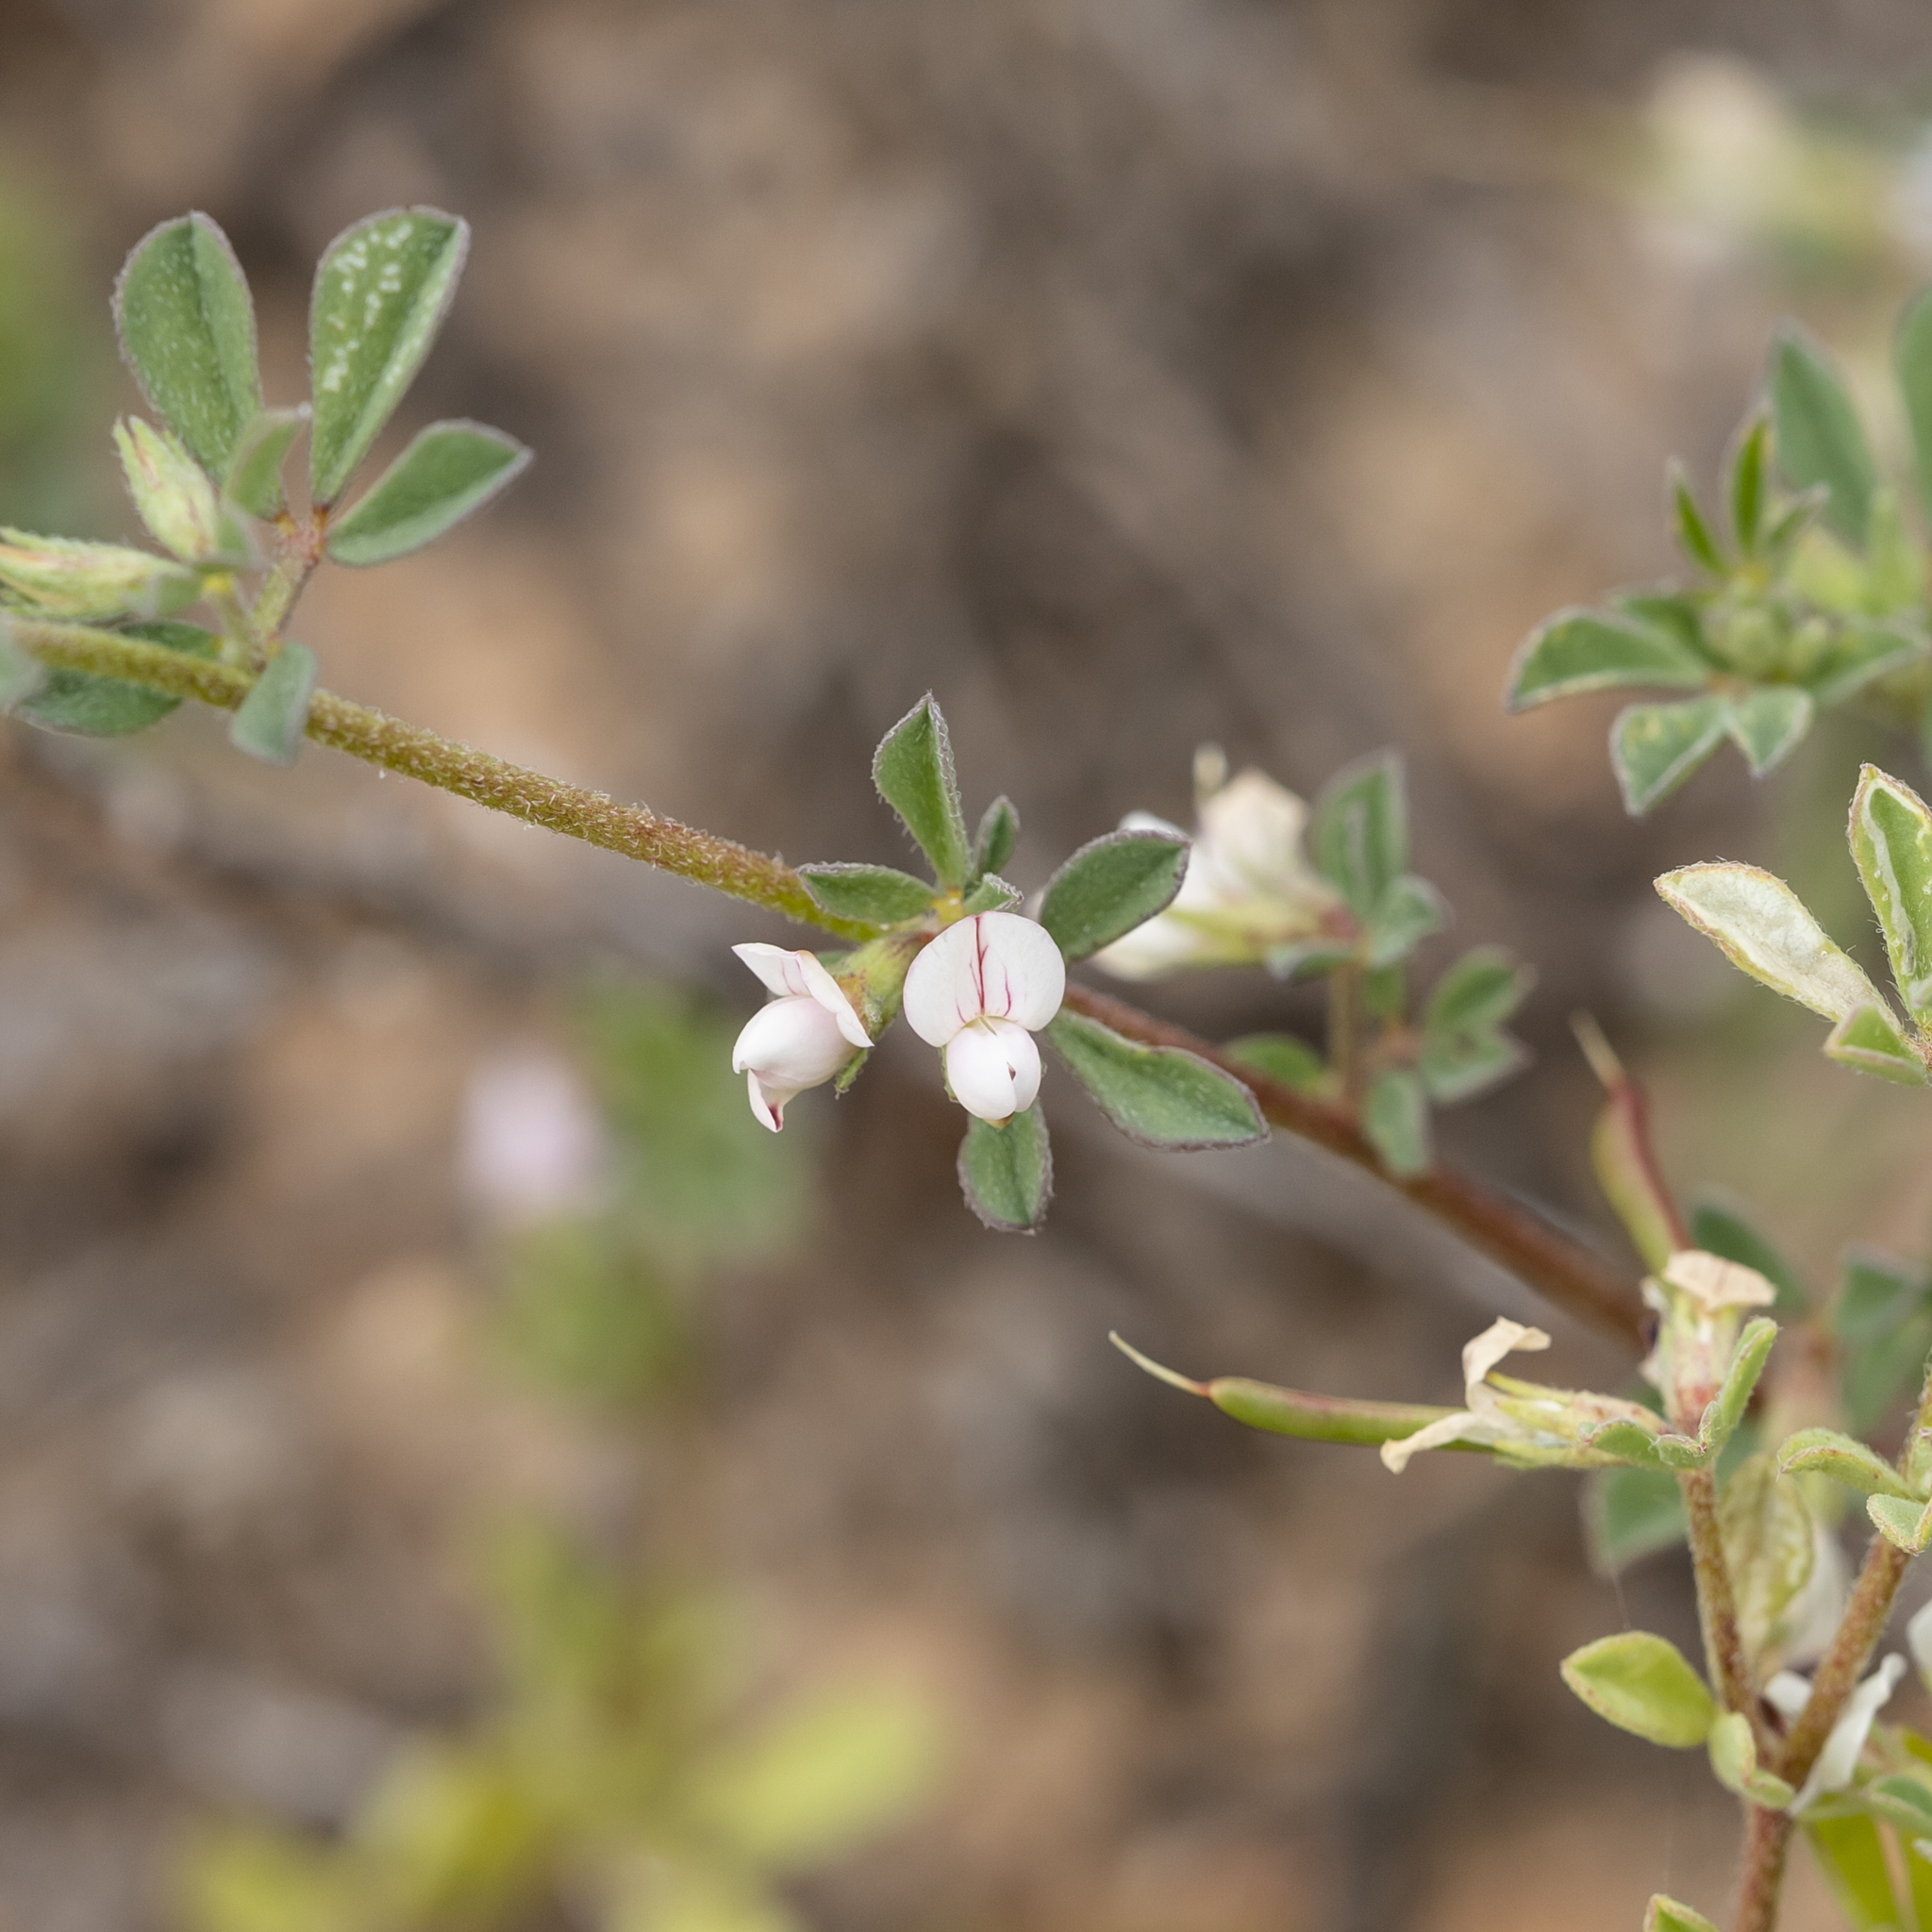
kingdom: Plantae
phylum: Tracheophyta
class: Magnoliopsida
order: Fabales
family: Fabaceae
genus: Lotus
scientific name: Lotus cruentus
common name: Red bird's-foot trefoil
